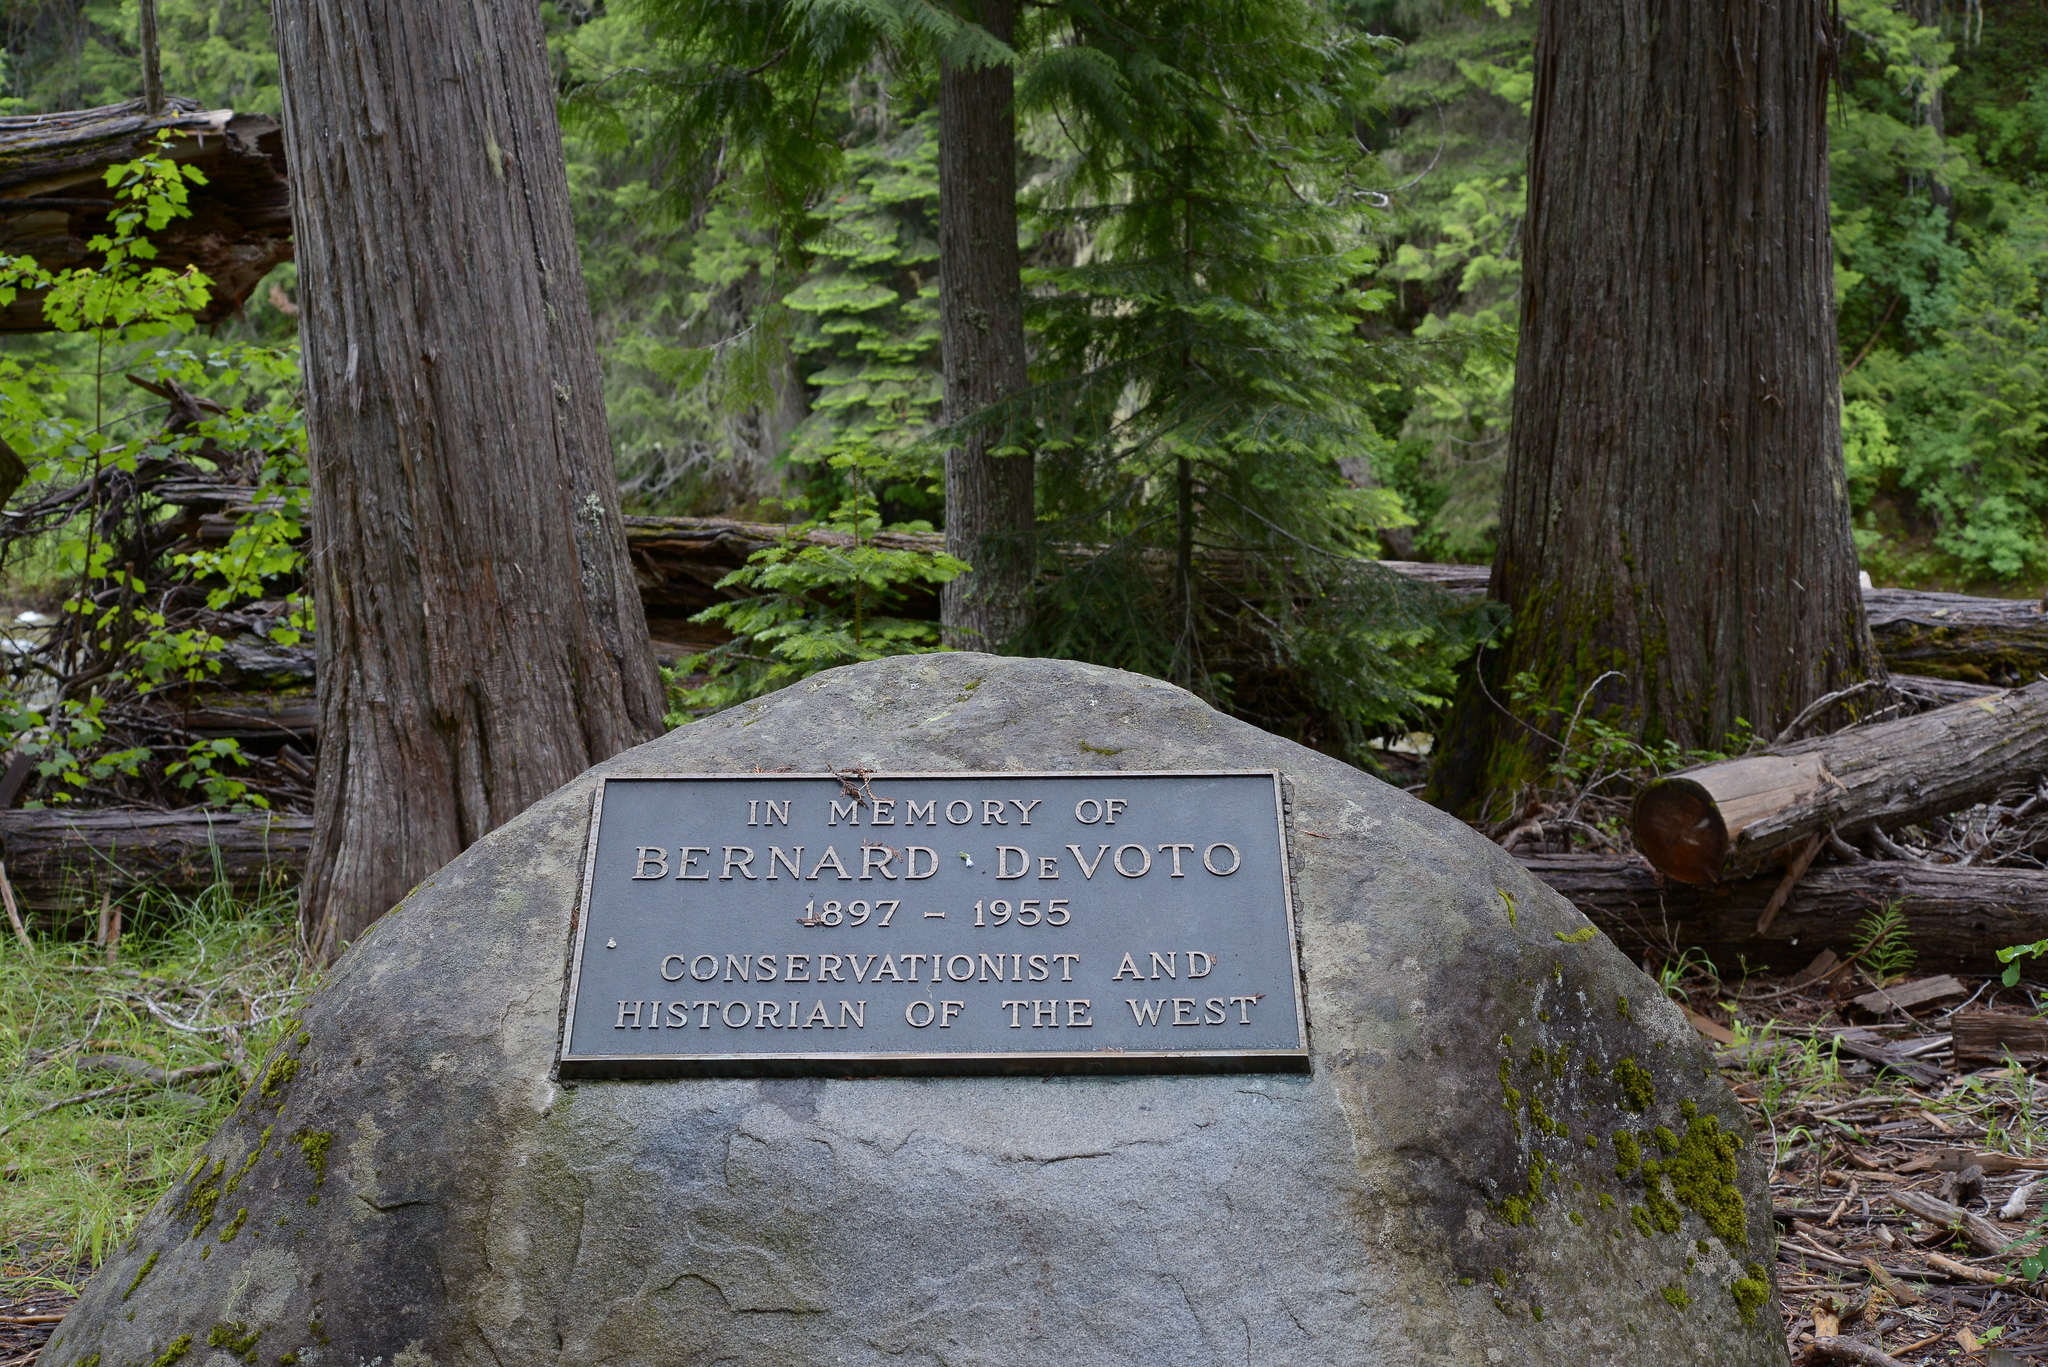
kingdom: Plantae
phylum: Tracheophyta
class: Pinopsida
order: Pinales
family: Cupressaceae
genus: Thuja
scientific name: Thuja plicata
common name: Western red-cedar
